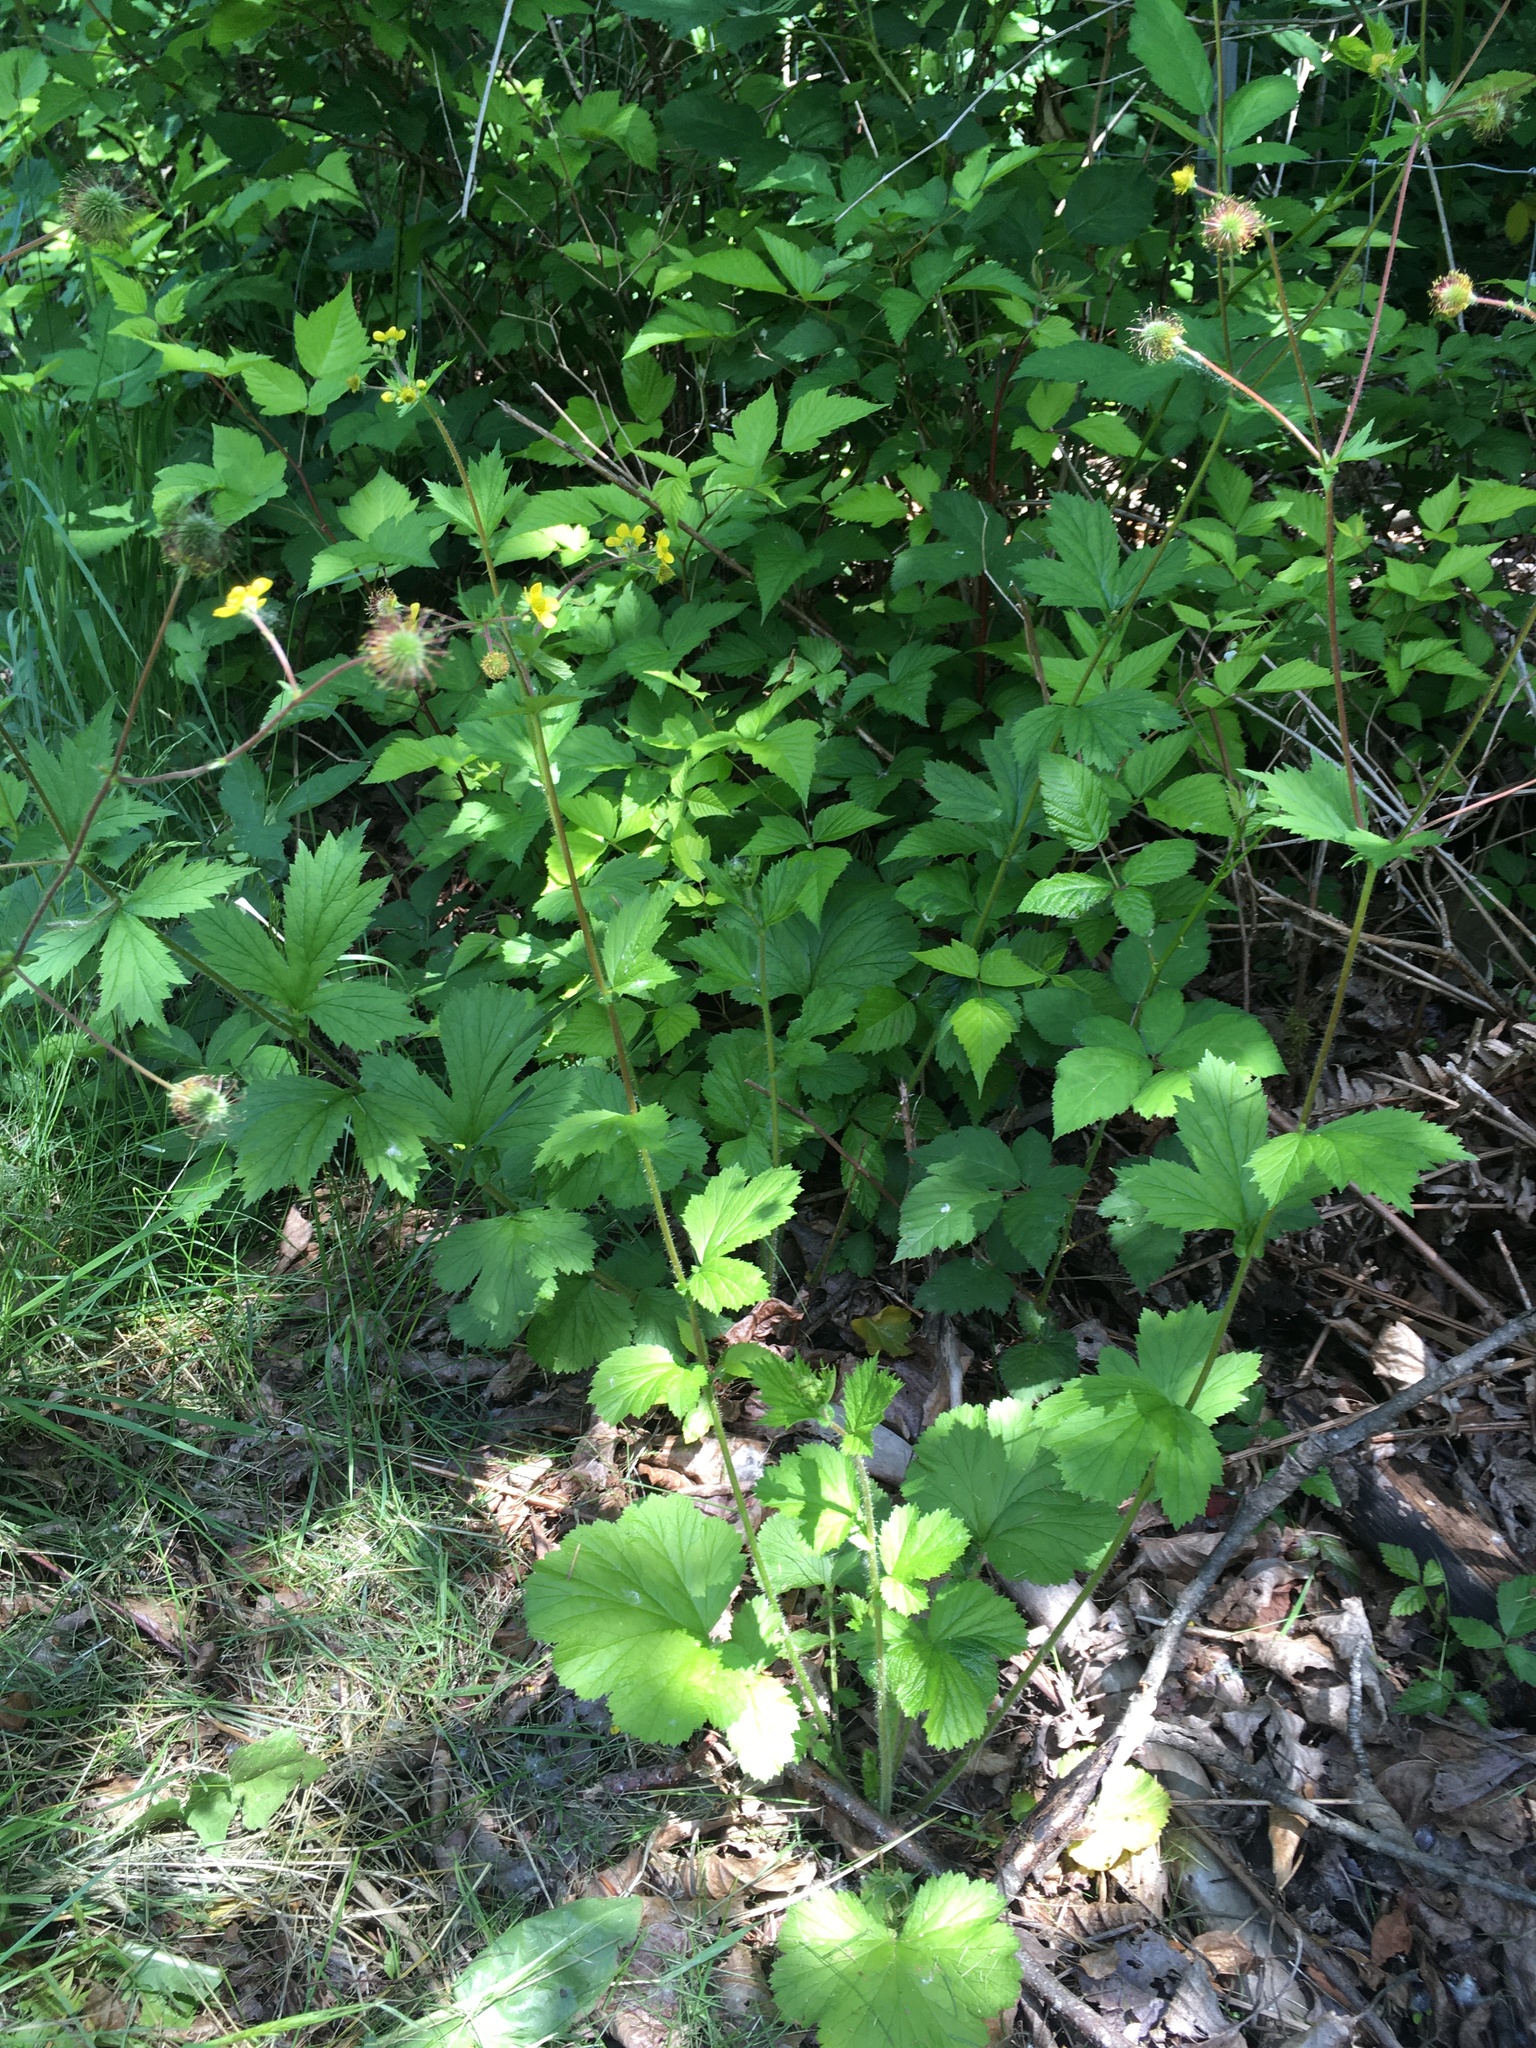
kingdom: Plantae
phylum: Tracheophyta
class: Magnoliopsida
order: Rosales
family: Rosaceae
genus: Geum
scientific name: Geum macrophyllum
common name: Large-leaved avens
